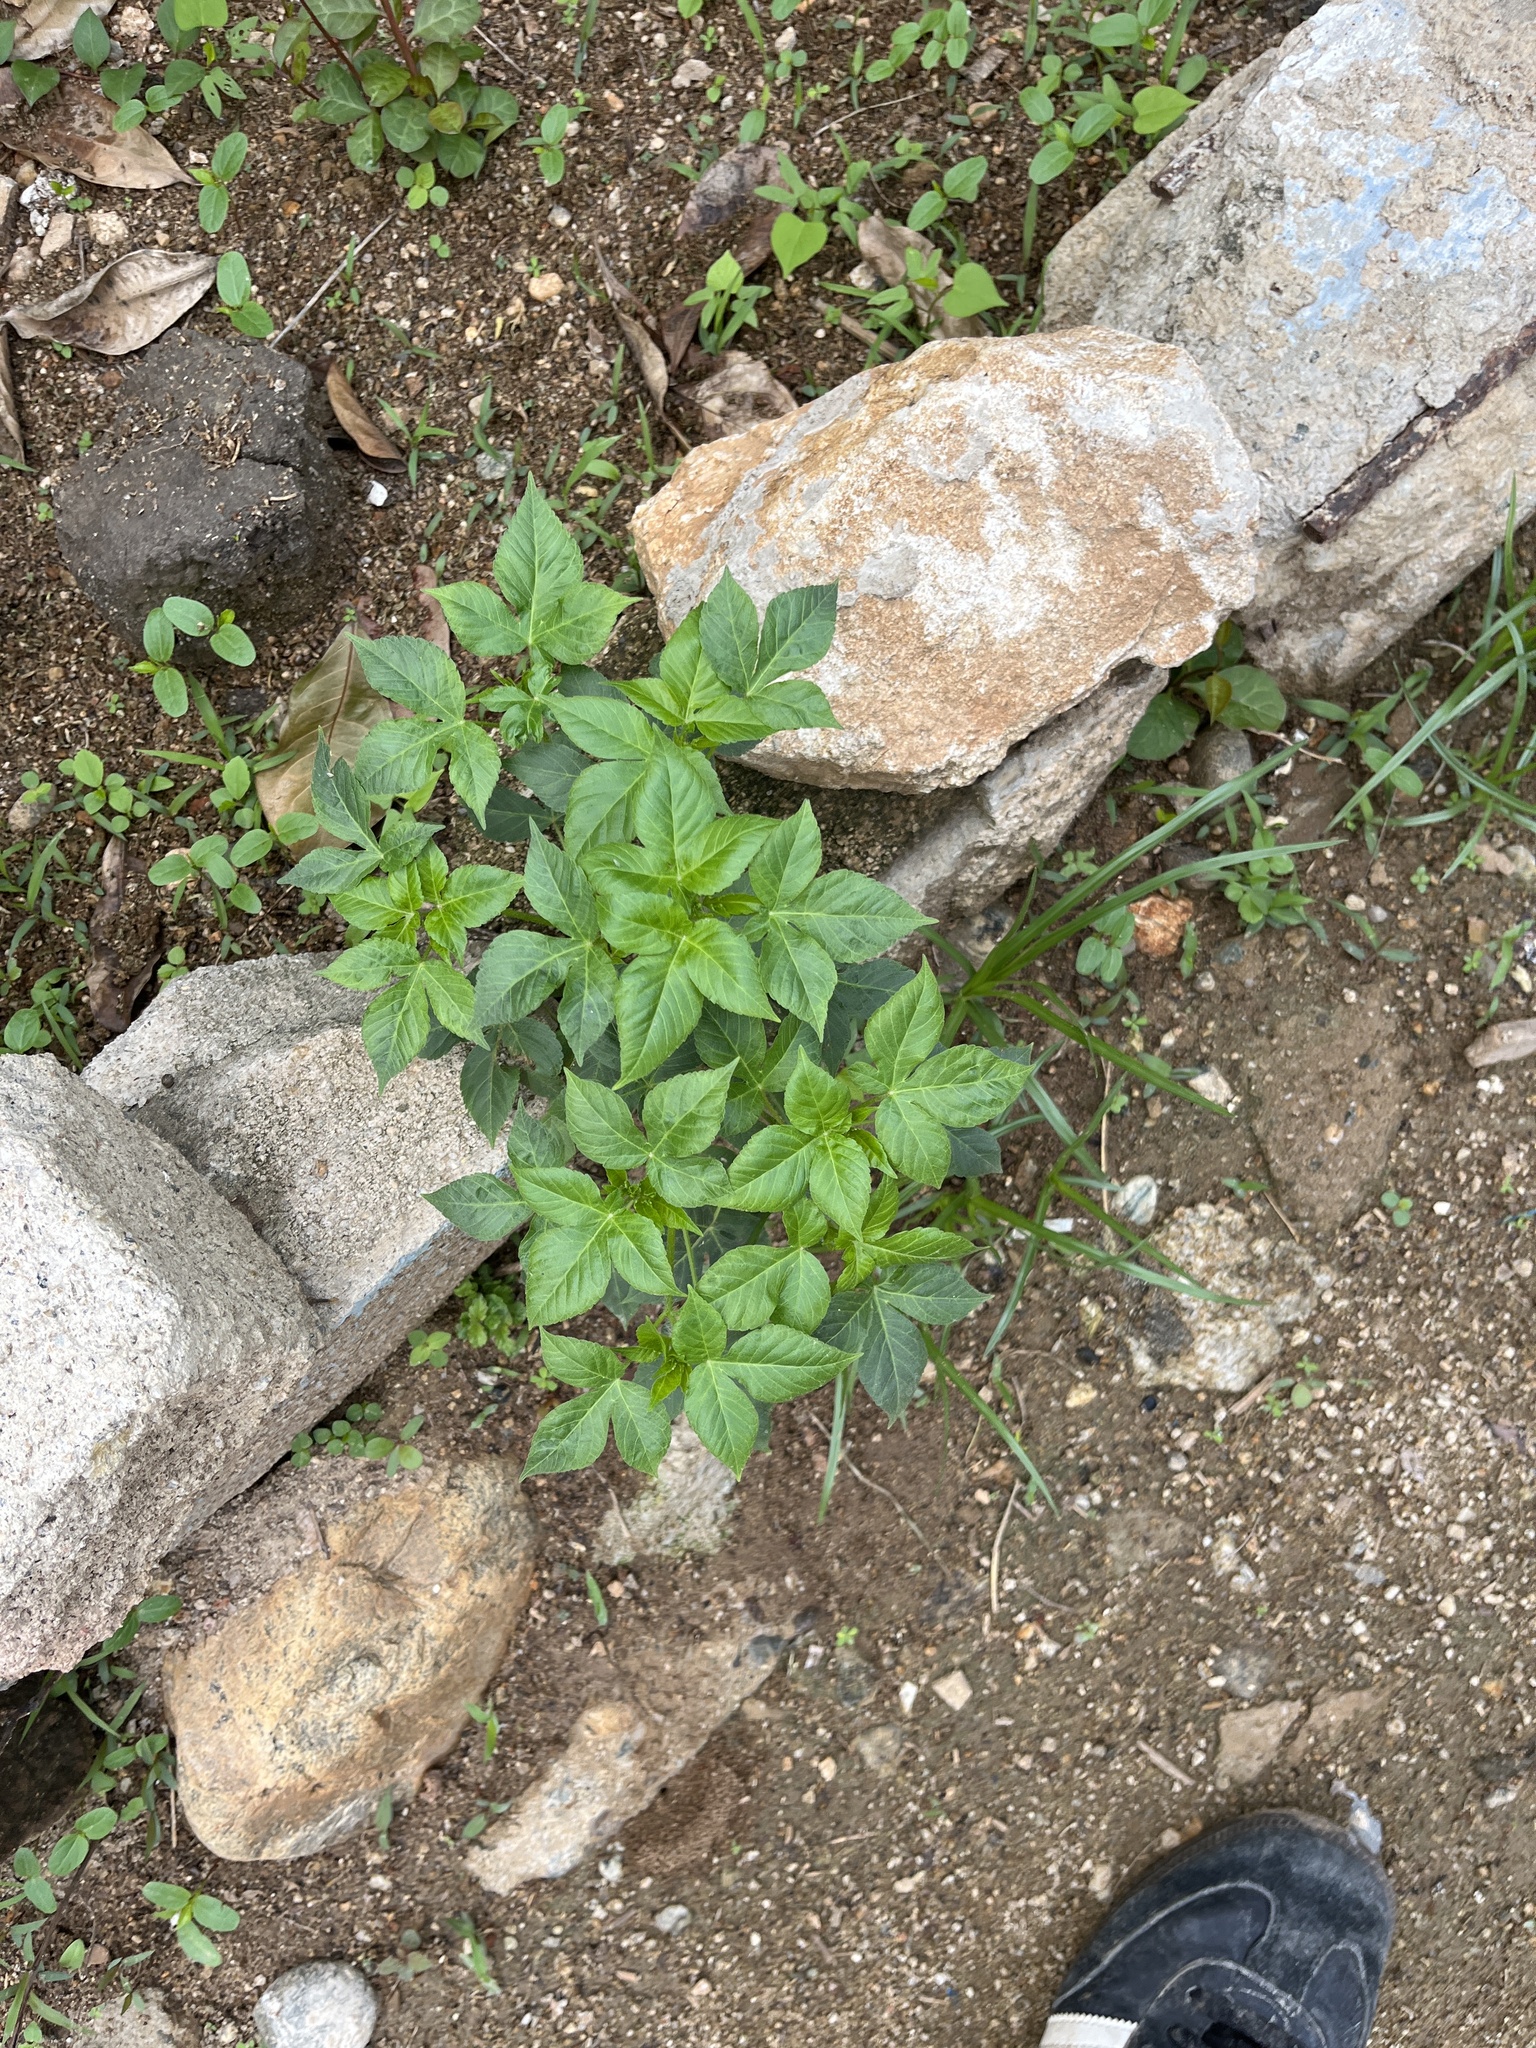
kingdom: Plantae
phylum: Tracheophyta
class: Magnoliopsida
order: Malpighiales
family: Euphorbiaceae
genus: Astraea
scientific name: Astraea lobata
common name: Lobed croton
